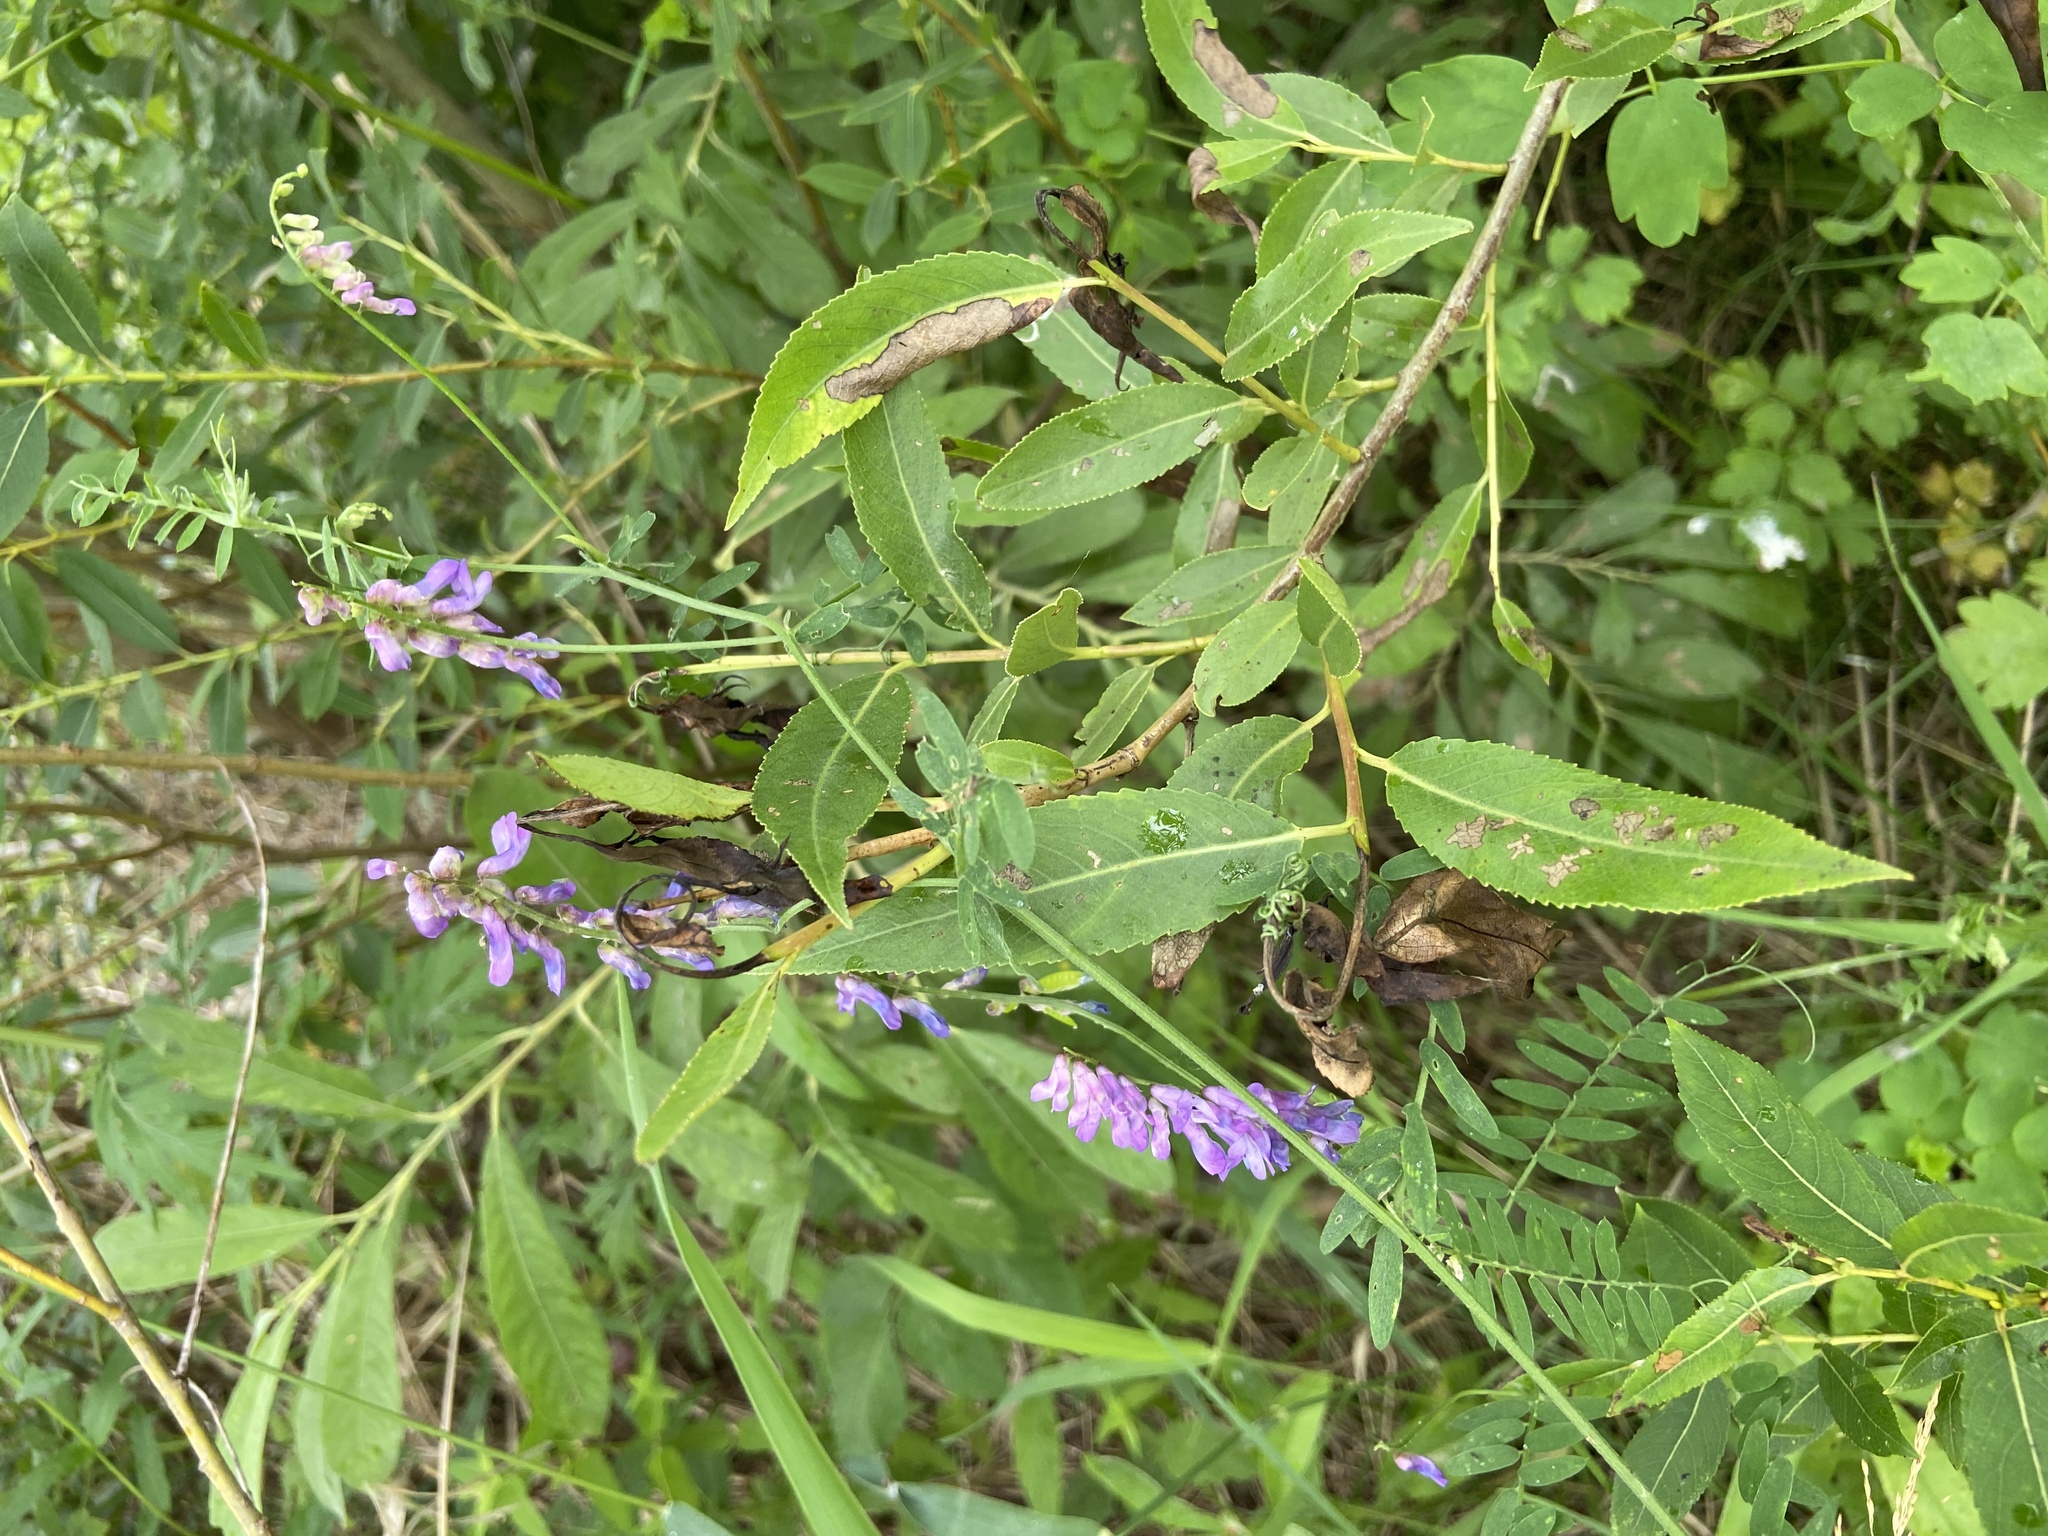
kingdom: Plantae
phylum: Tracheophyta
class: Magnoliopsida
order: Fabales
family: Fabaceae
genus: Vicia
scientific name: Vicia cracca
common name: Bird vetch
